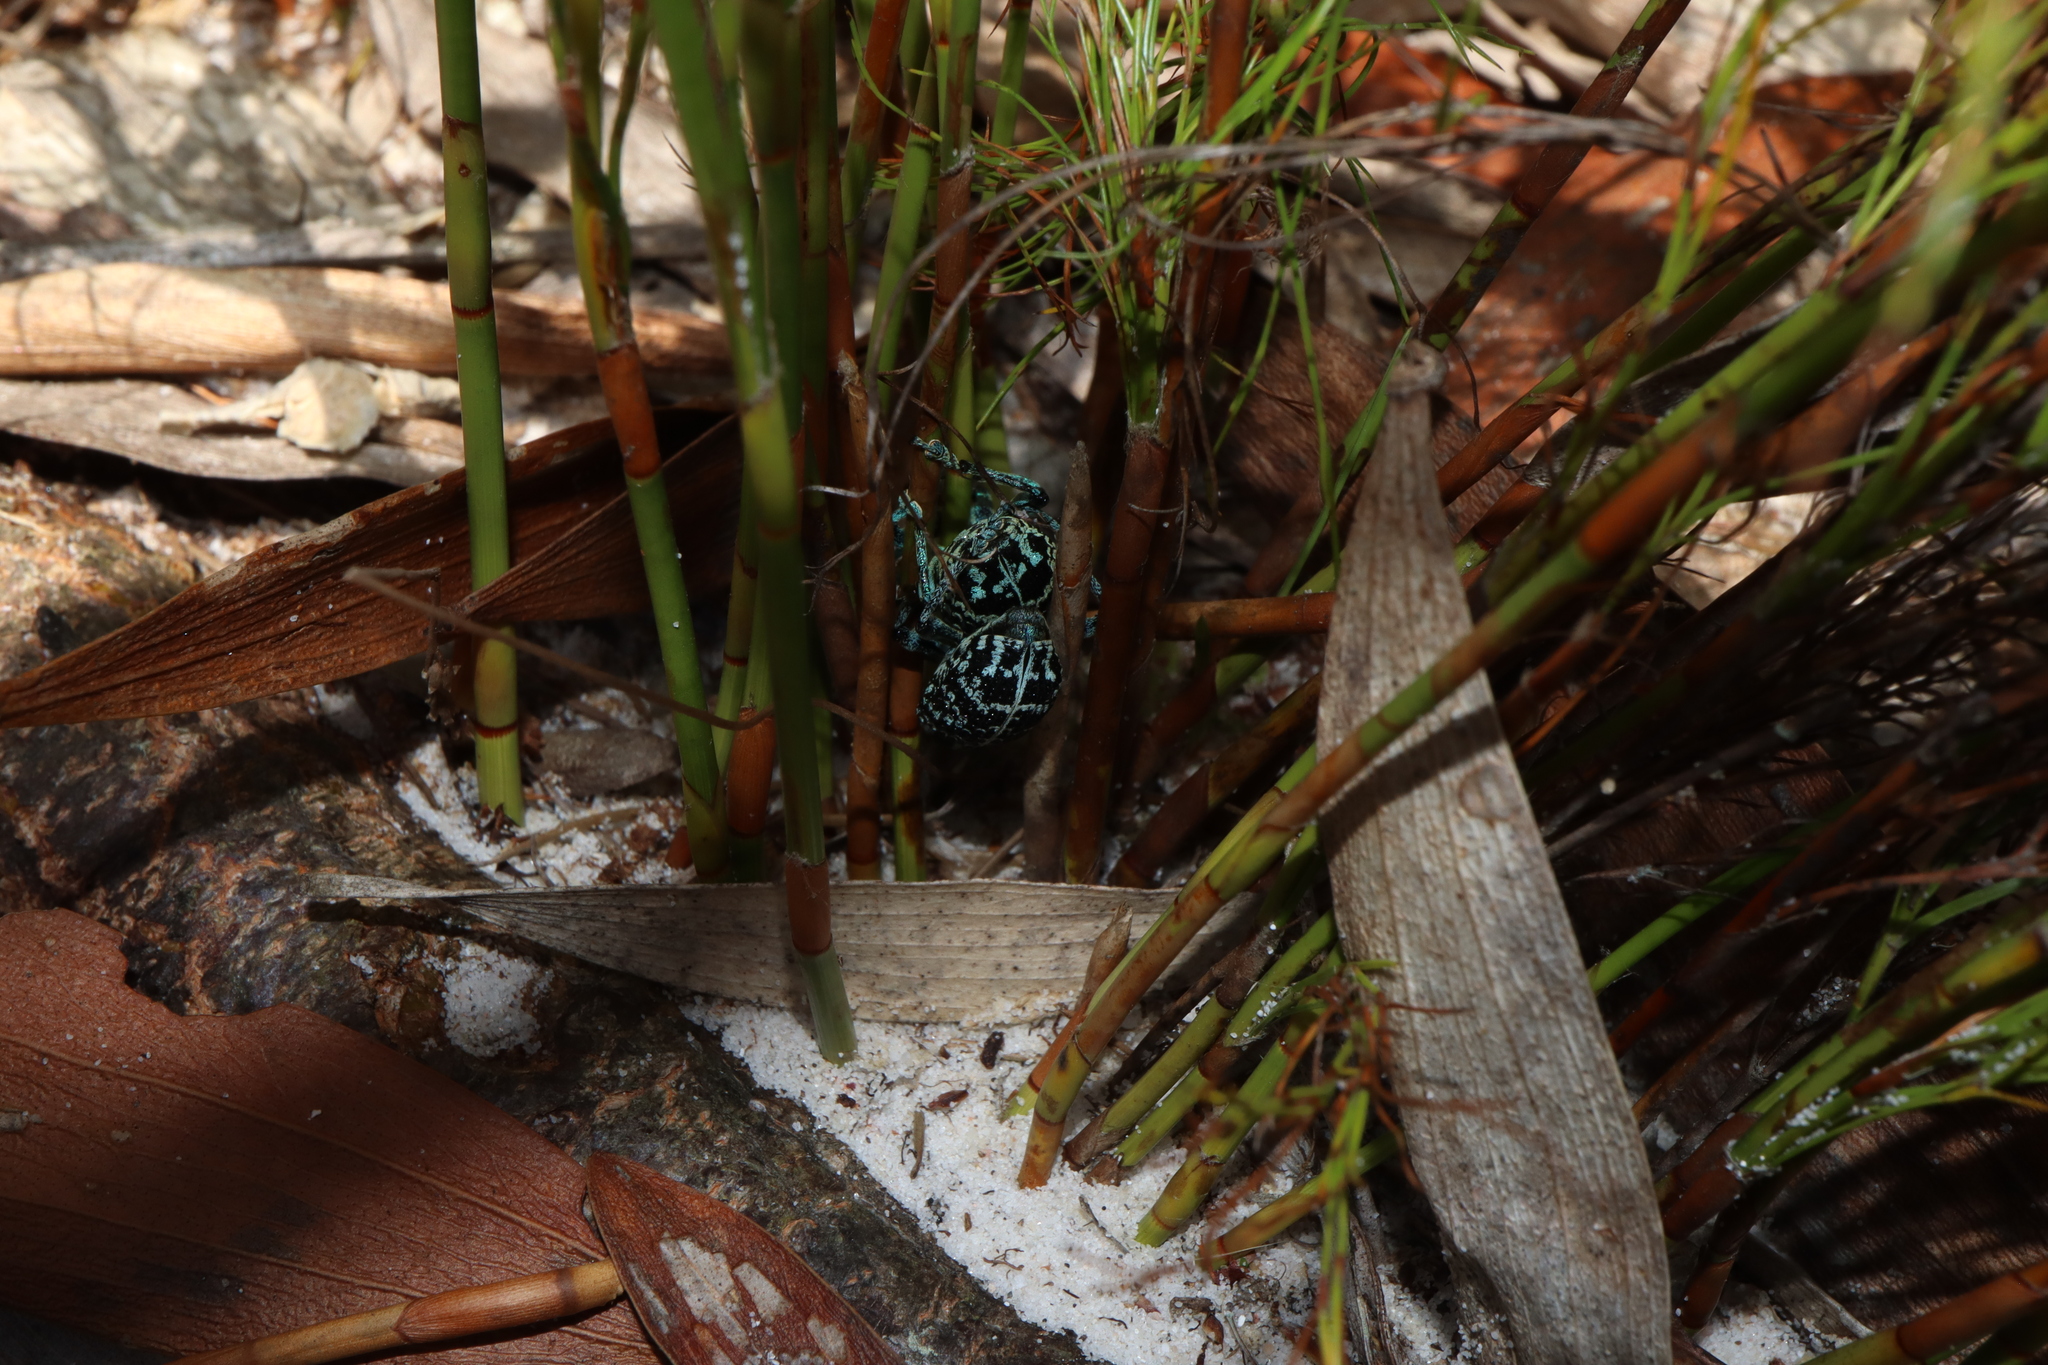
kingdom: Animalia
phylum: Arthropoda
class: Insecta
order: Coleoptera
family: Curculionidae
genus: Chrysolopus
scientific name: Chrysolopus spectabilis
